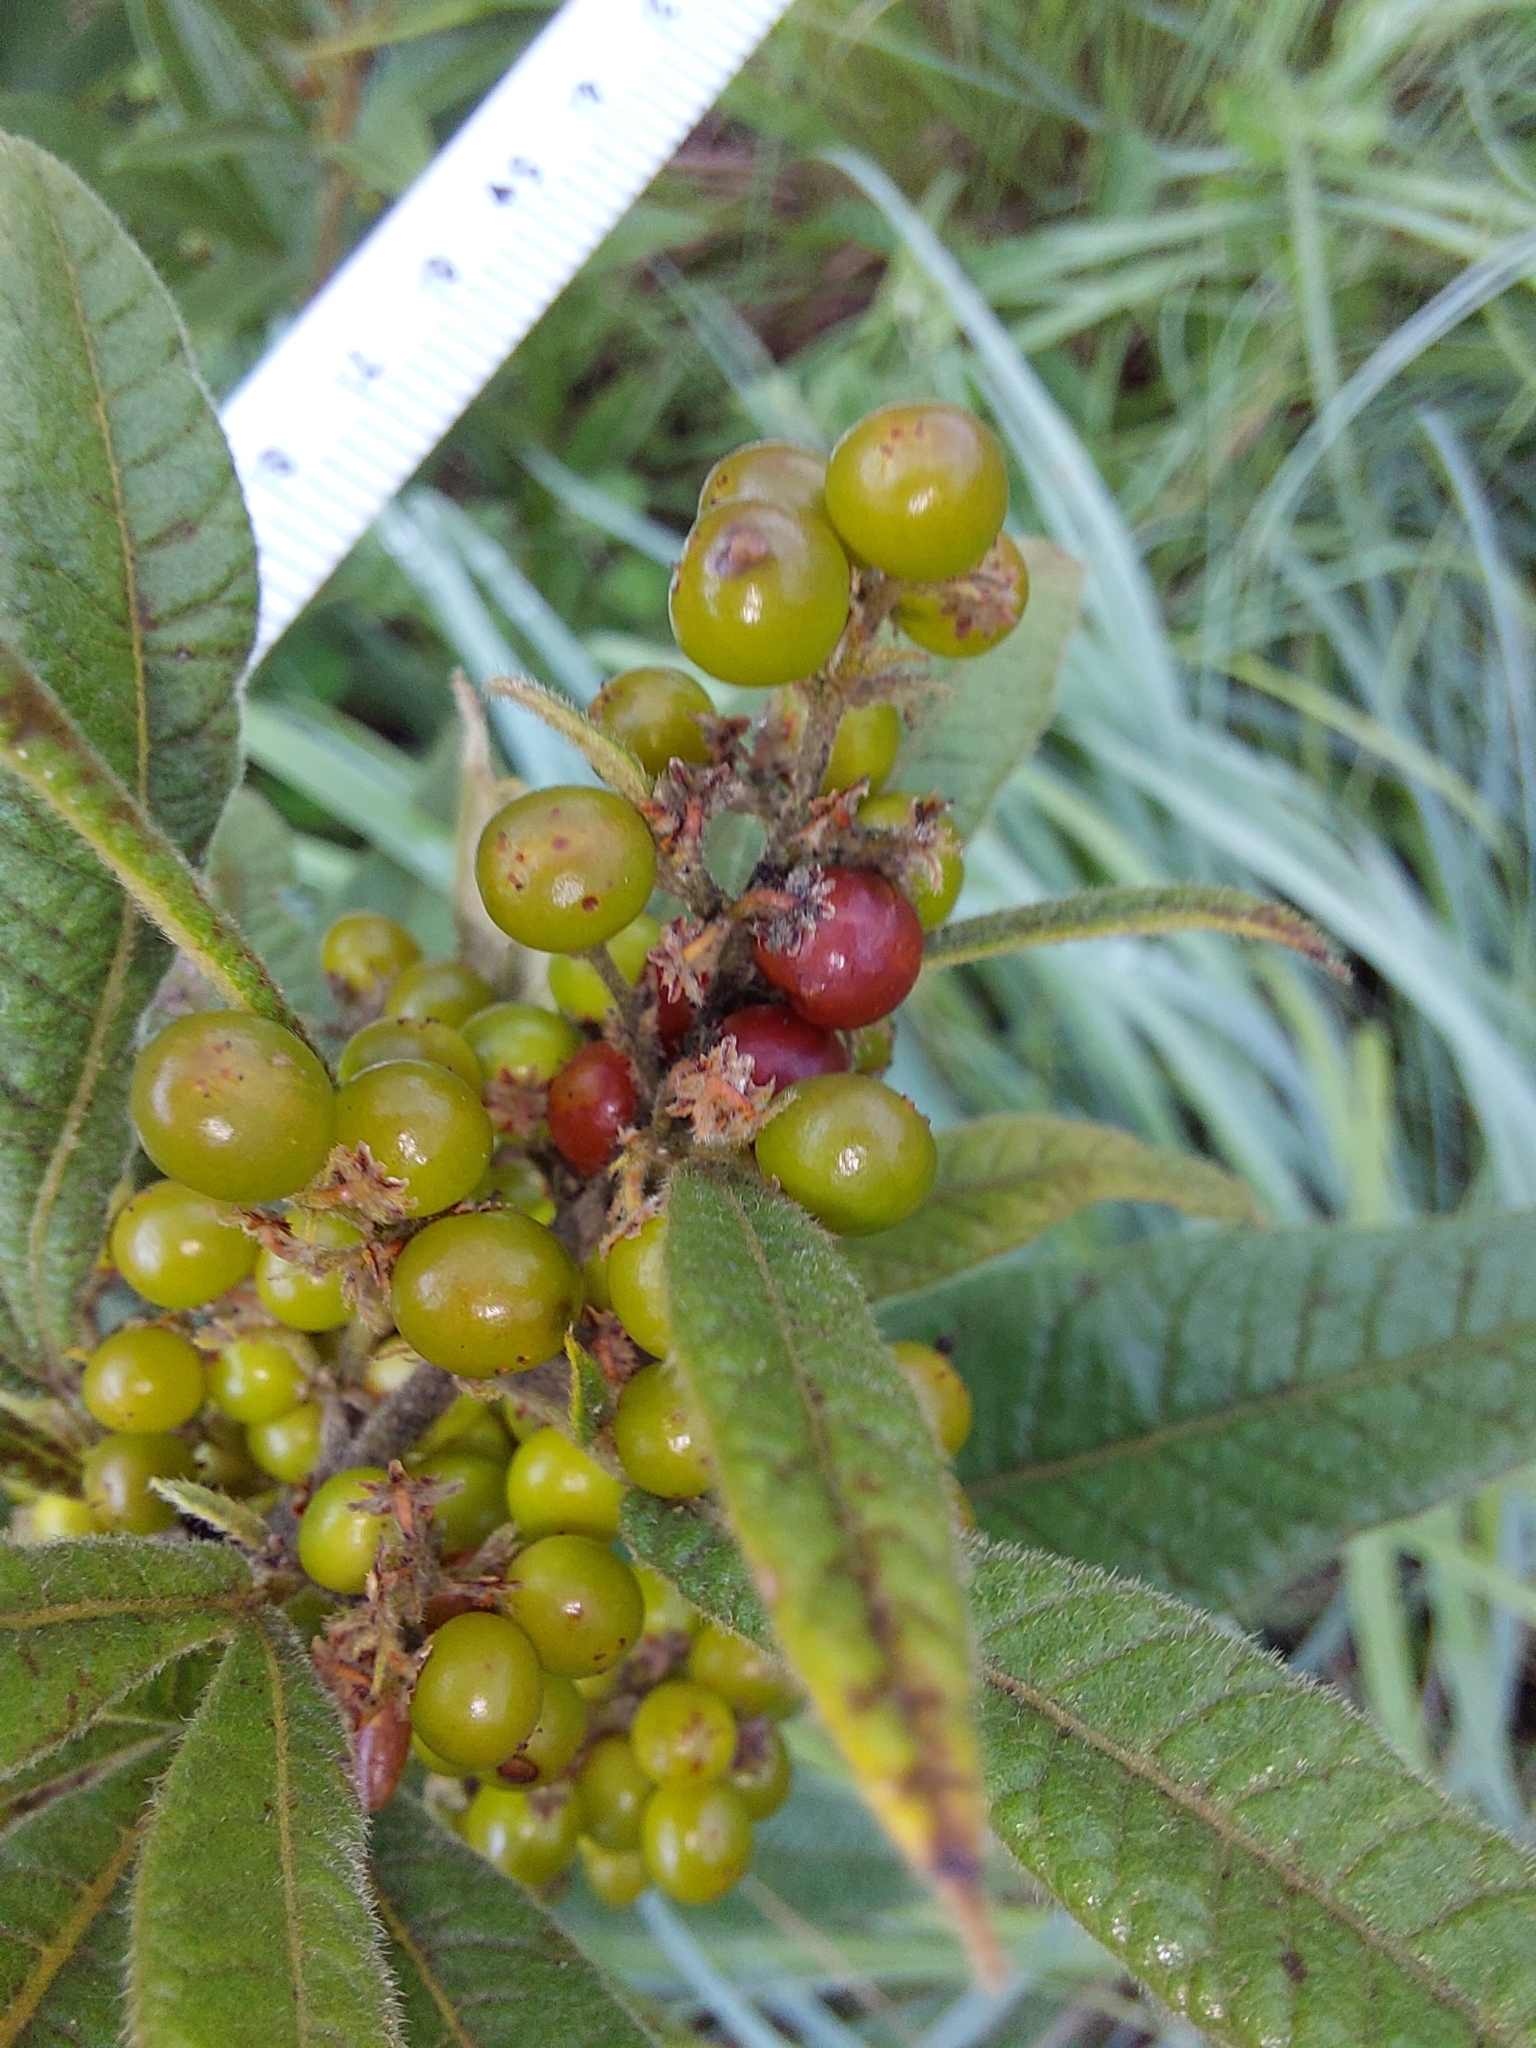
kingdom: Plantae
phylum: Tracheophyta
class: Magnoliopsida
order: Sapindales
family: Anacardiaceae
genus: Searsia
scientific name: Searsia discolor
